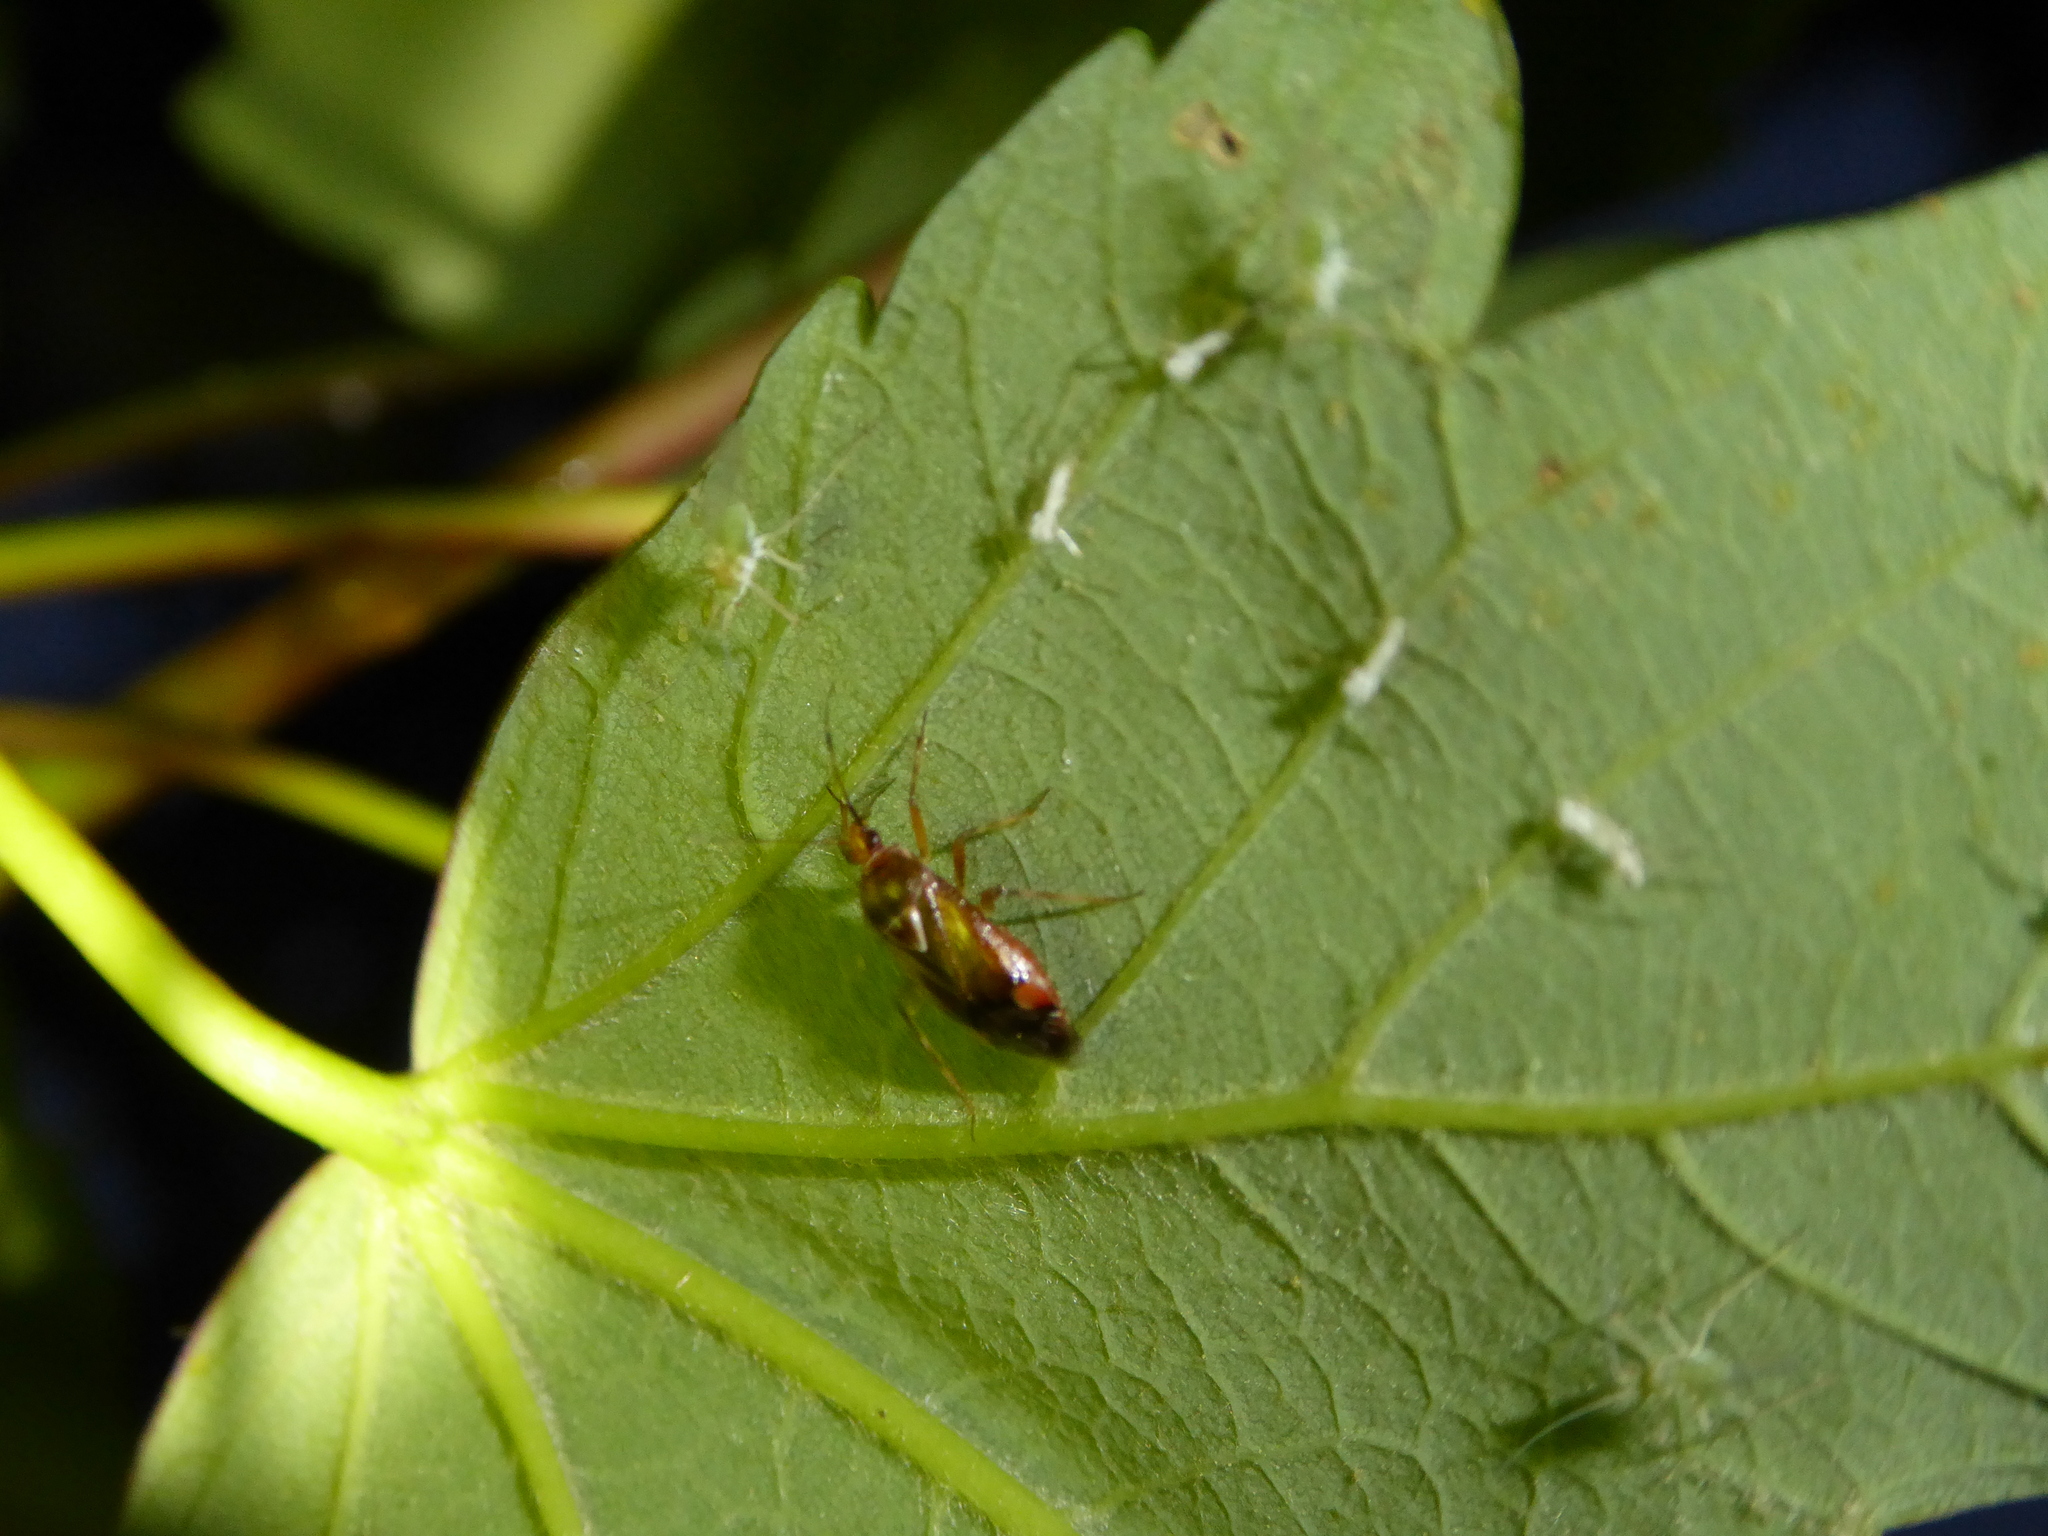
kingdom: Animalia
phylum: Arthropoda
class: Insecta
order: Hemiptera
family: Miridae
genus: Deraeocoris
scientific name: Deraeocoris flavilinea
